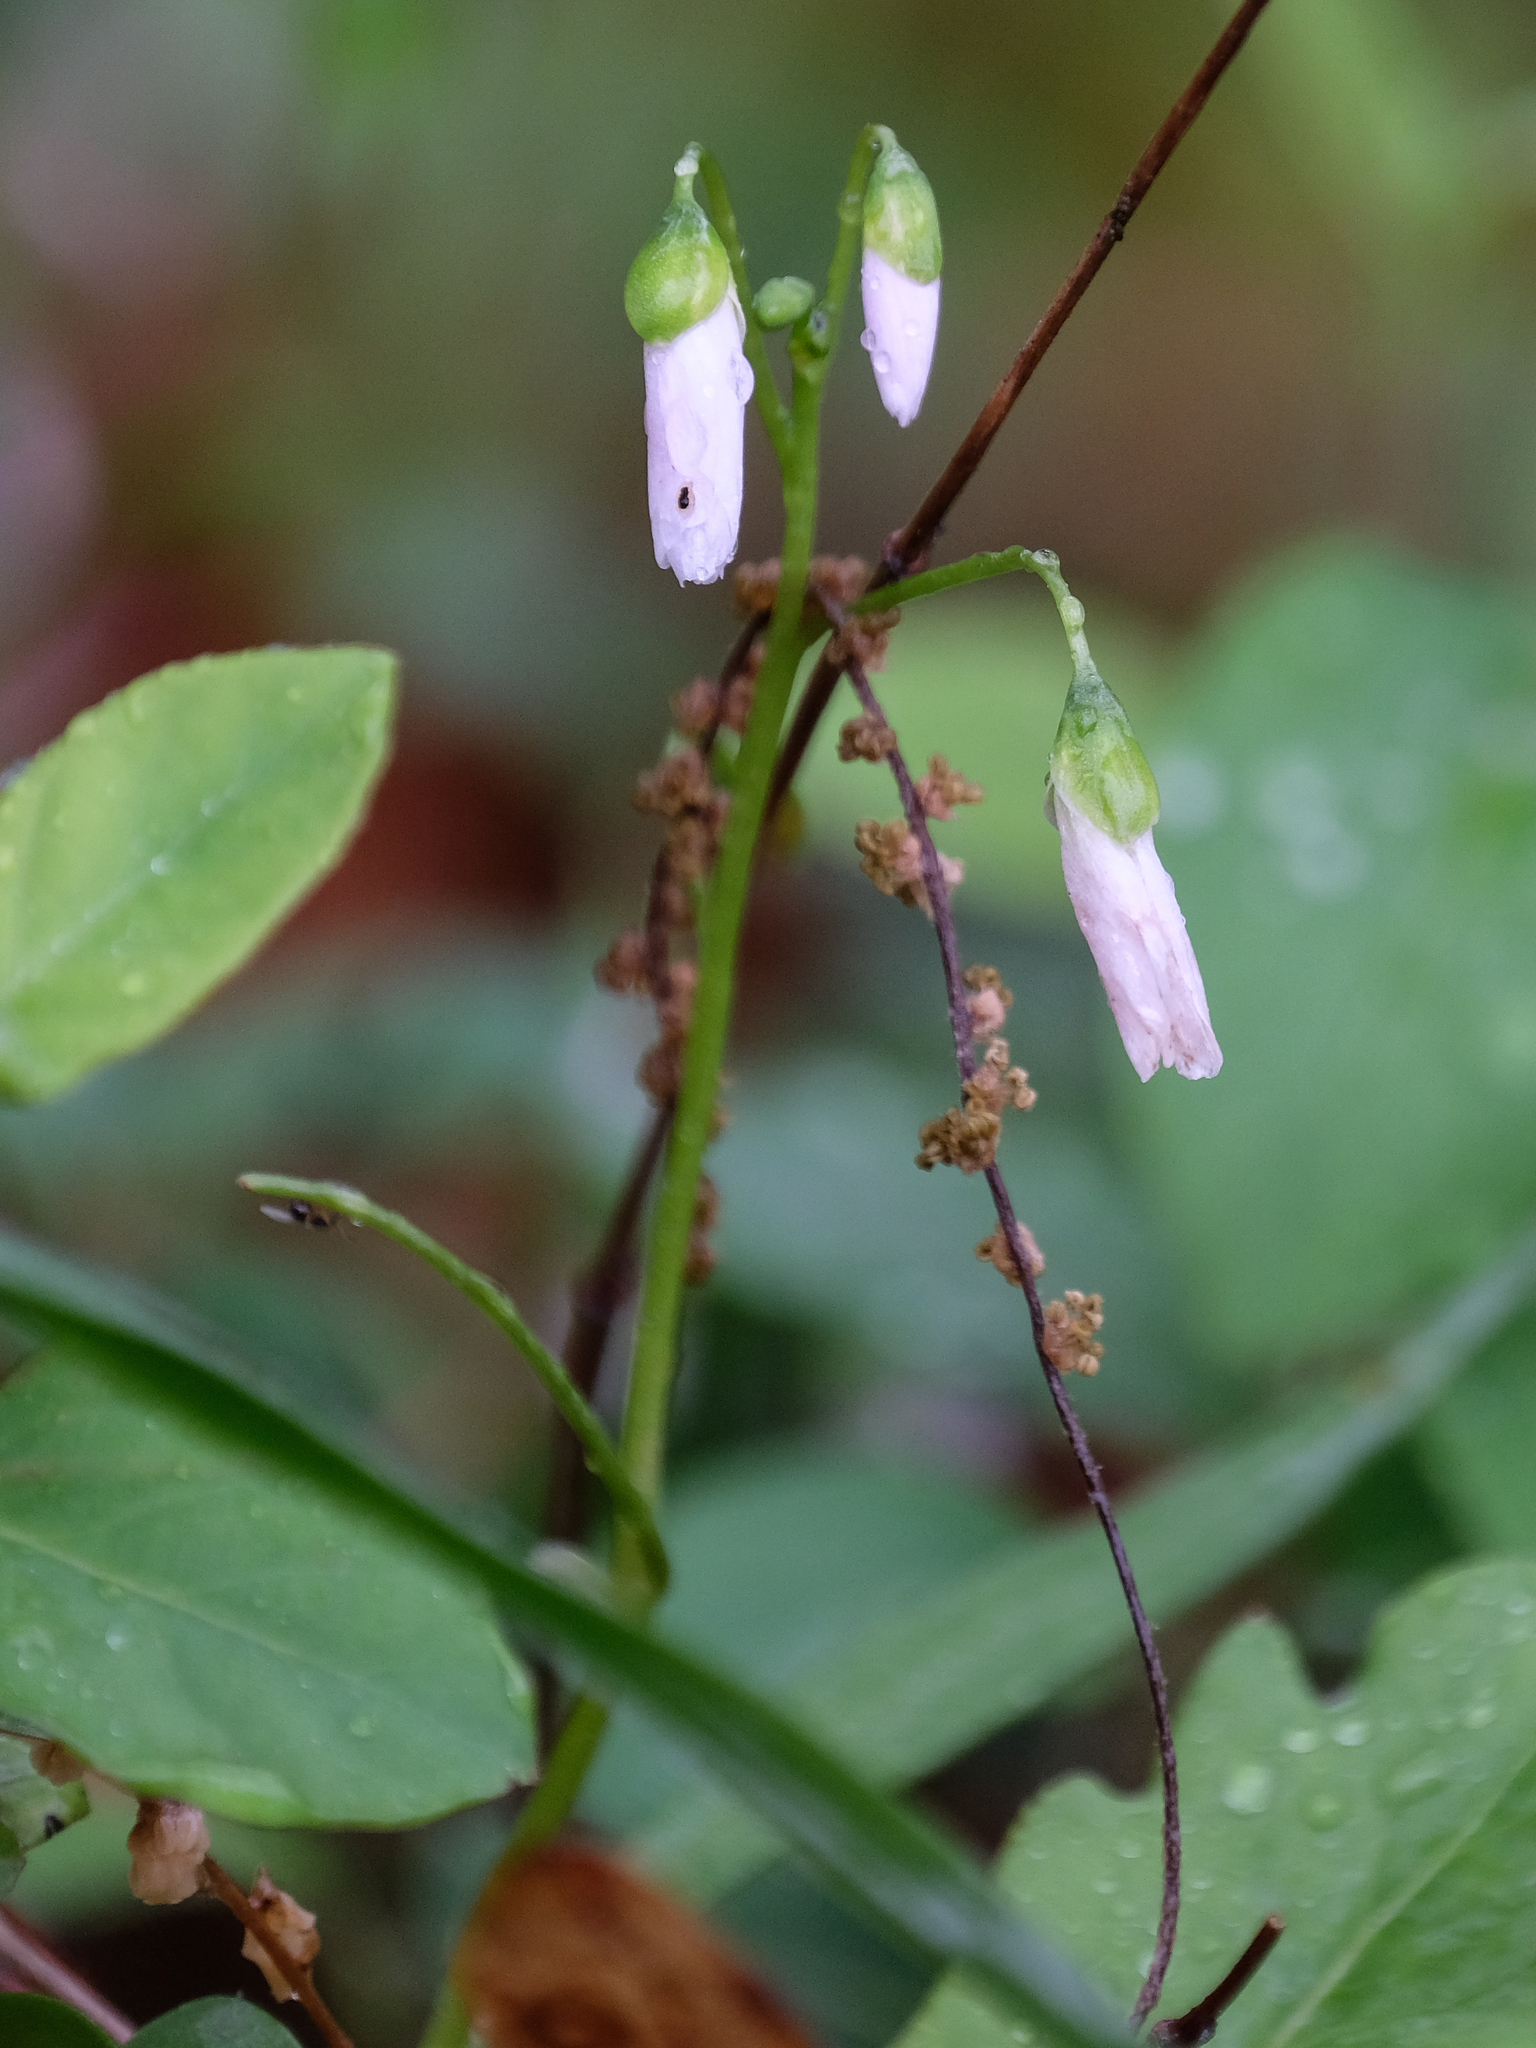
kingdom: Plantae
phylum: Tracheophyta
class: Magnoliopsida
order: Caryophyllales
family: Montiaceae
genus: Claytonia
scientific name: Claytonia virginica
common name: Virginia springbeauty
